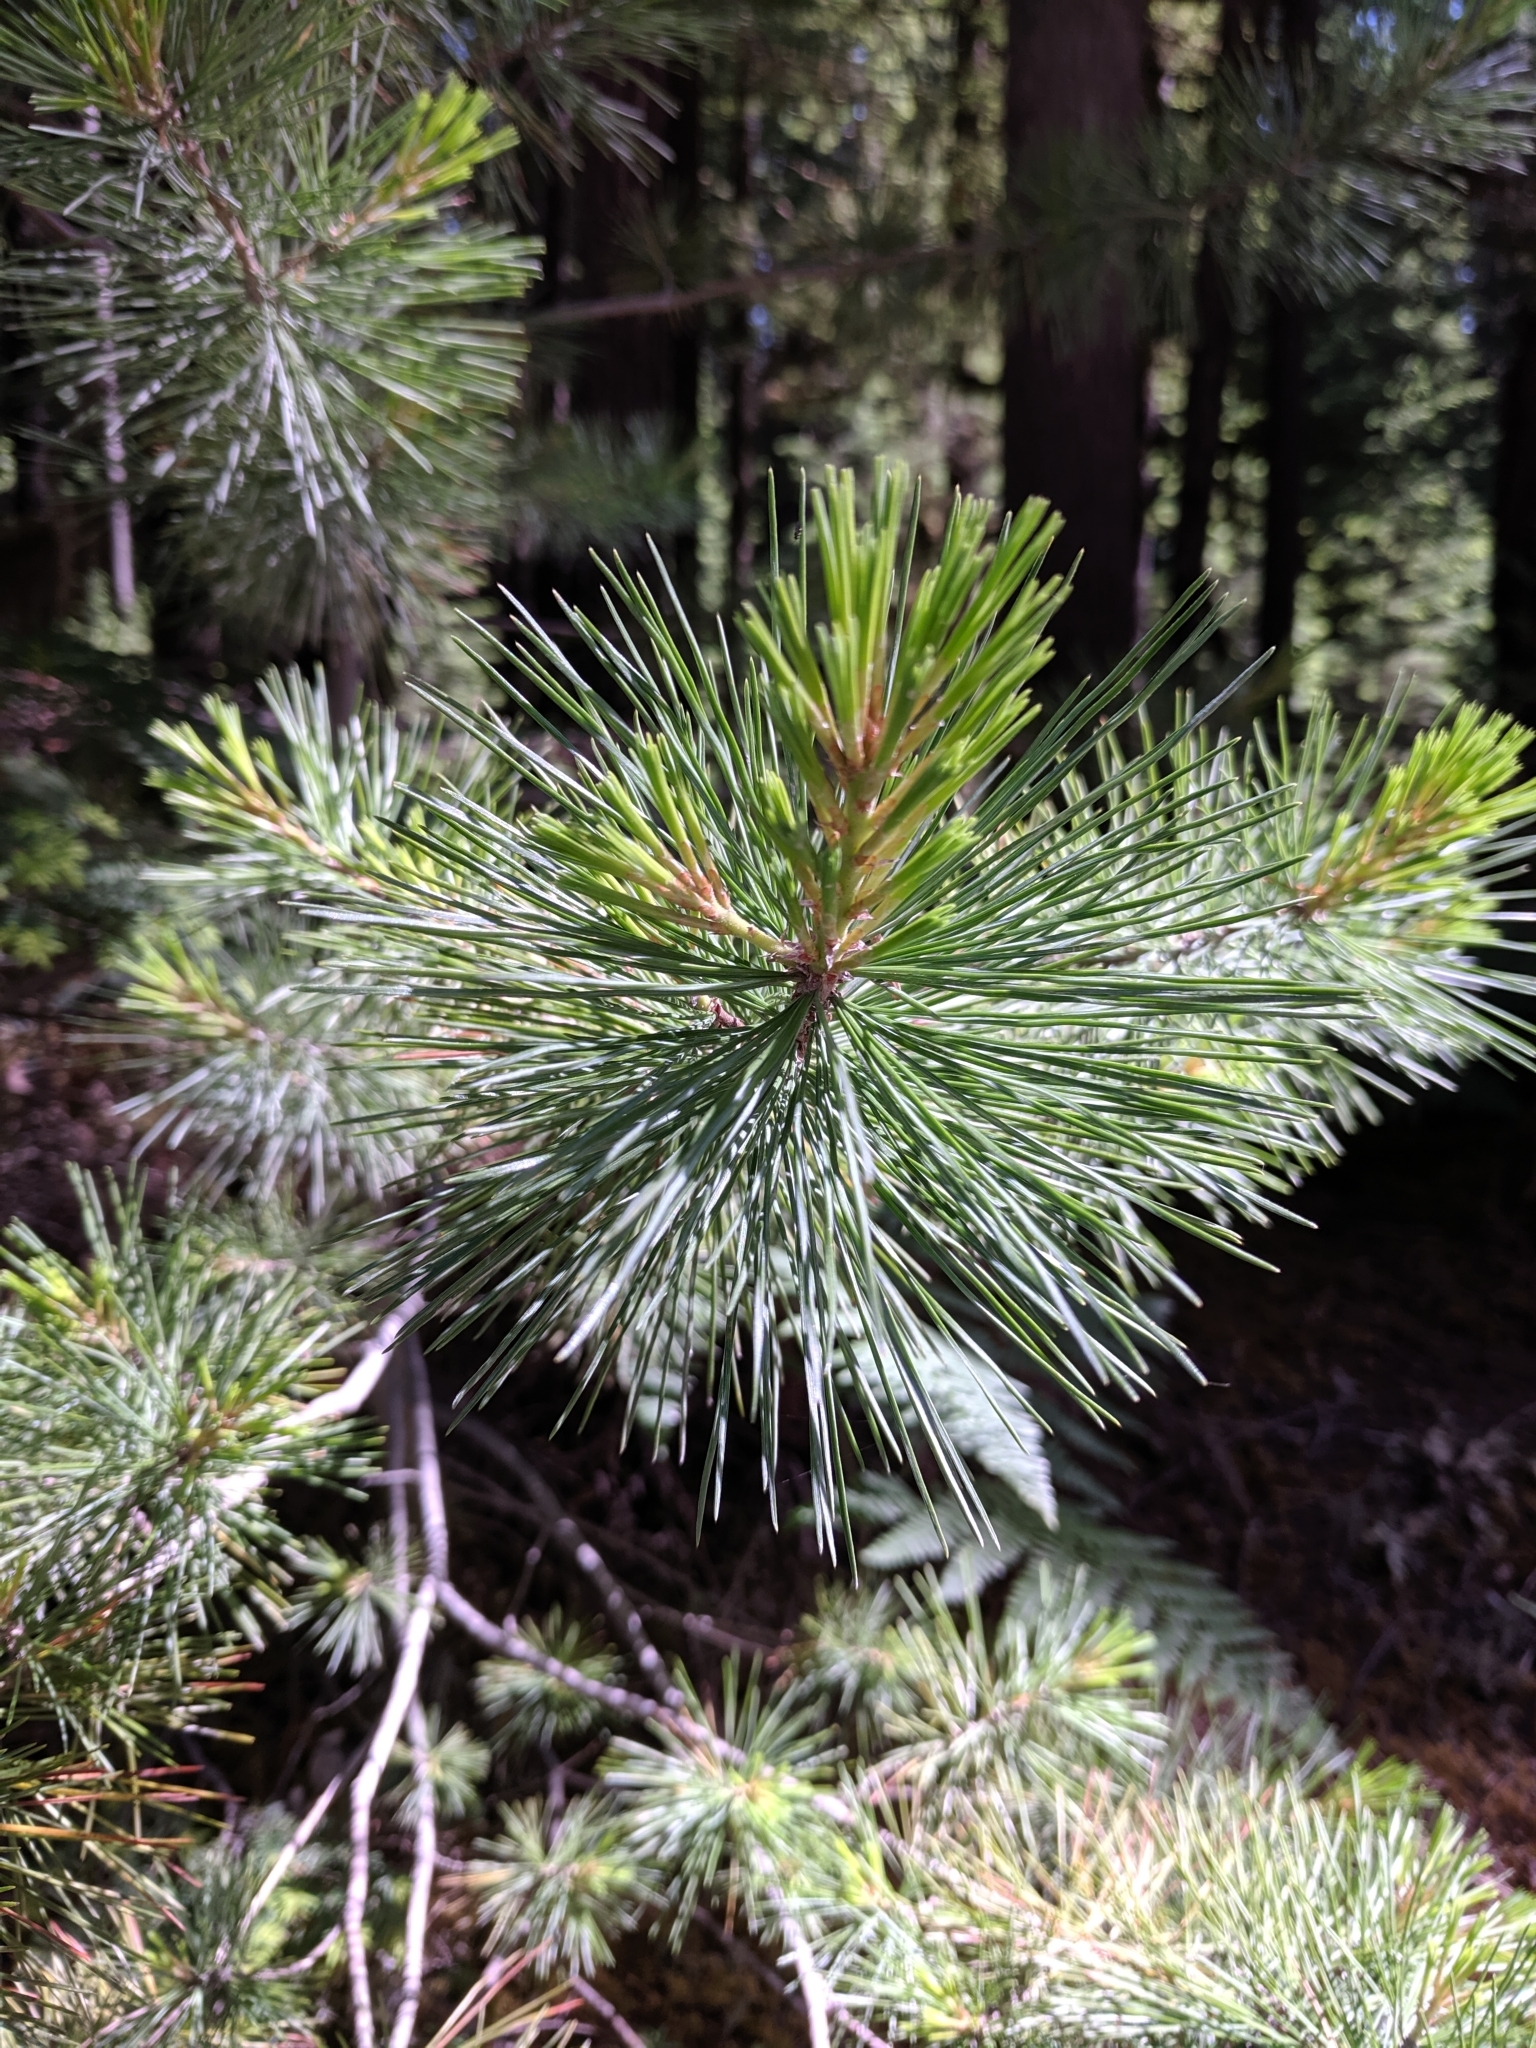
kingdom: Plantae
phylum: Tracheophyta
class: Pinopsida
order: Pinales
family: Pinaceae
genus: Pinus
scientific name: Pinus monticola
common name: Western white pine
